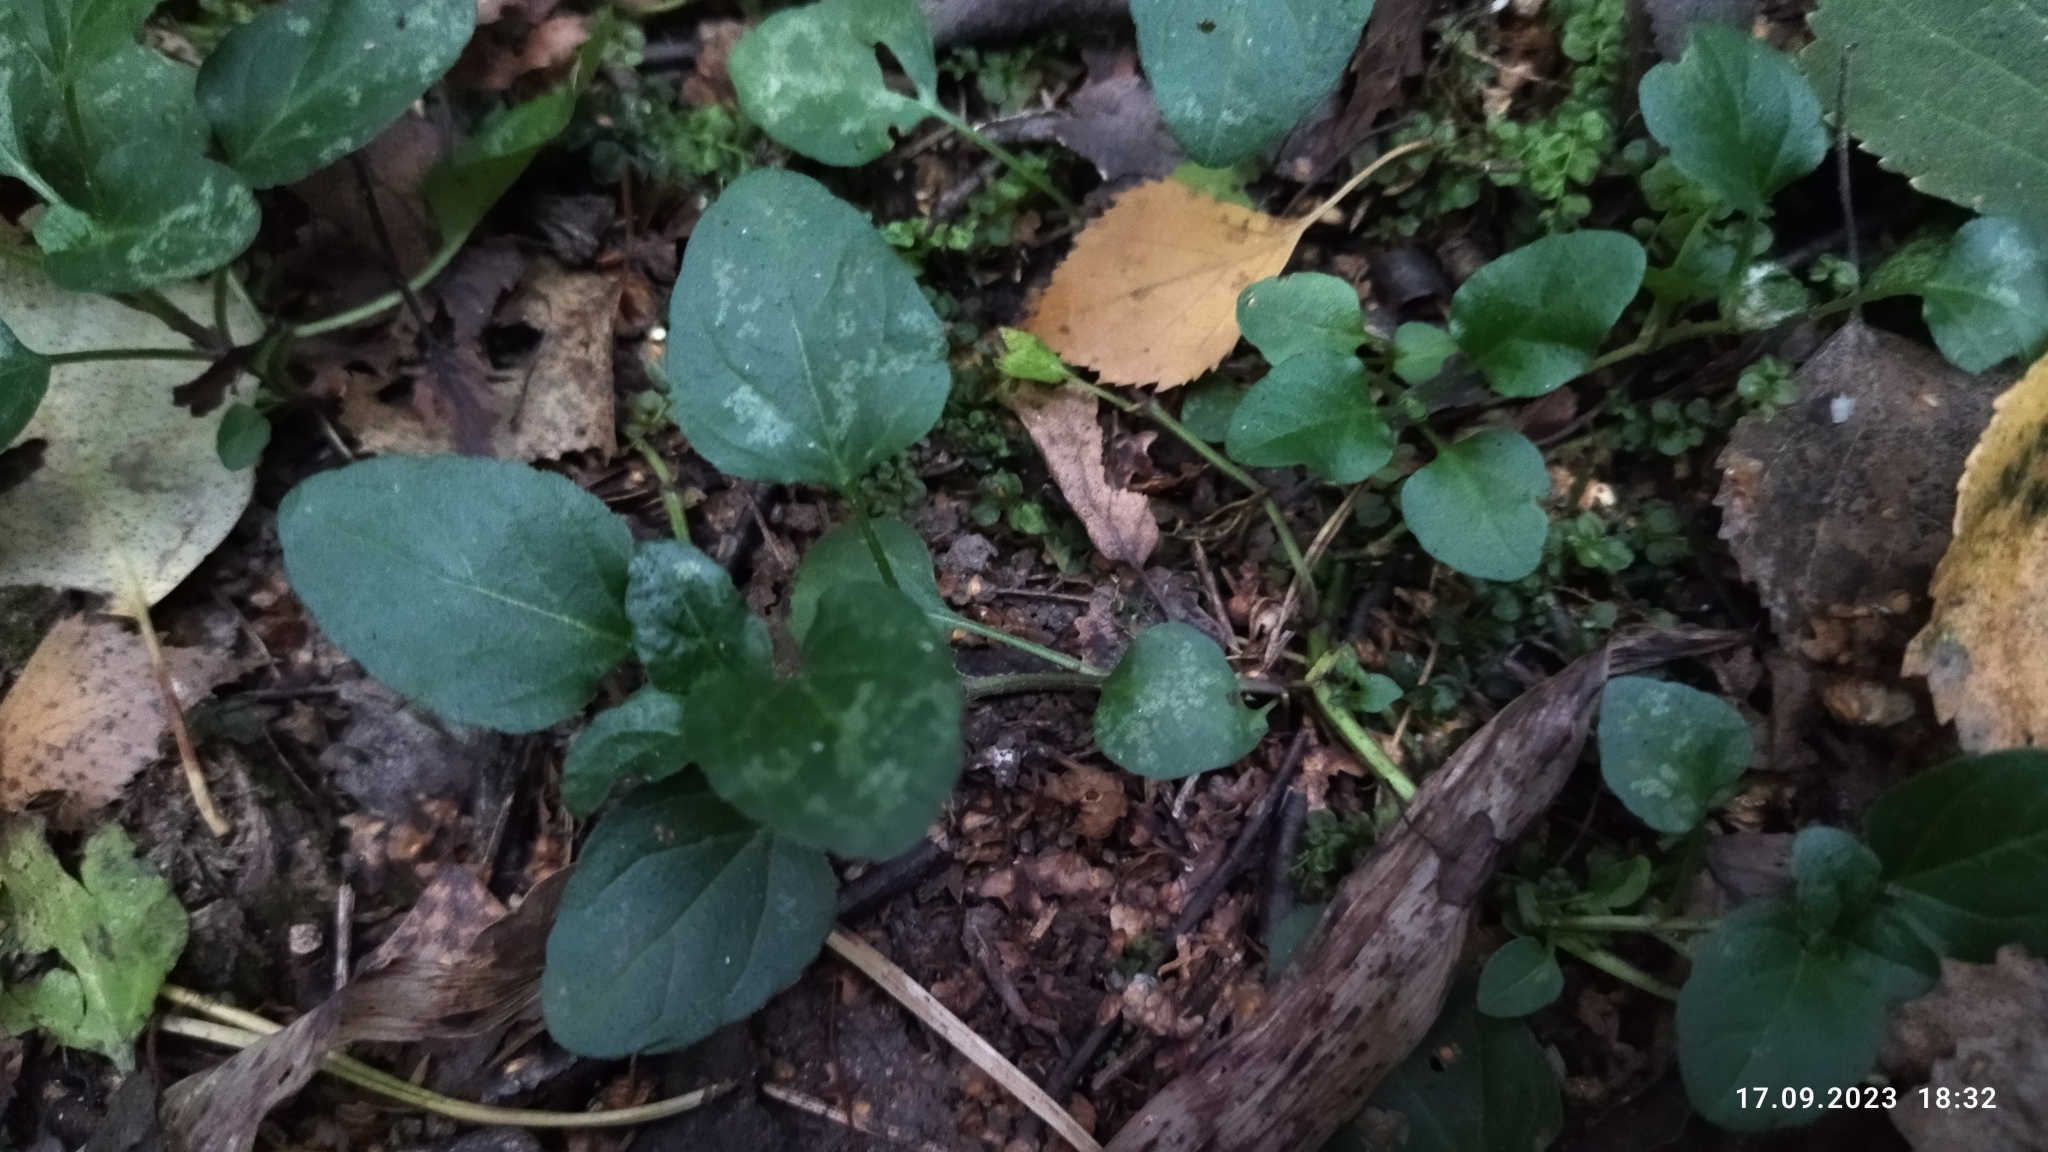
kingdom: Plantae
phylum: Tracheophyta
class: Magnoliopsida
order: Lamiales
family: Lamiaceae
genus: Prunella
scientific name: Prunella vulgaris
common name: Heal-all
